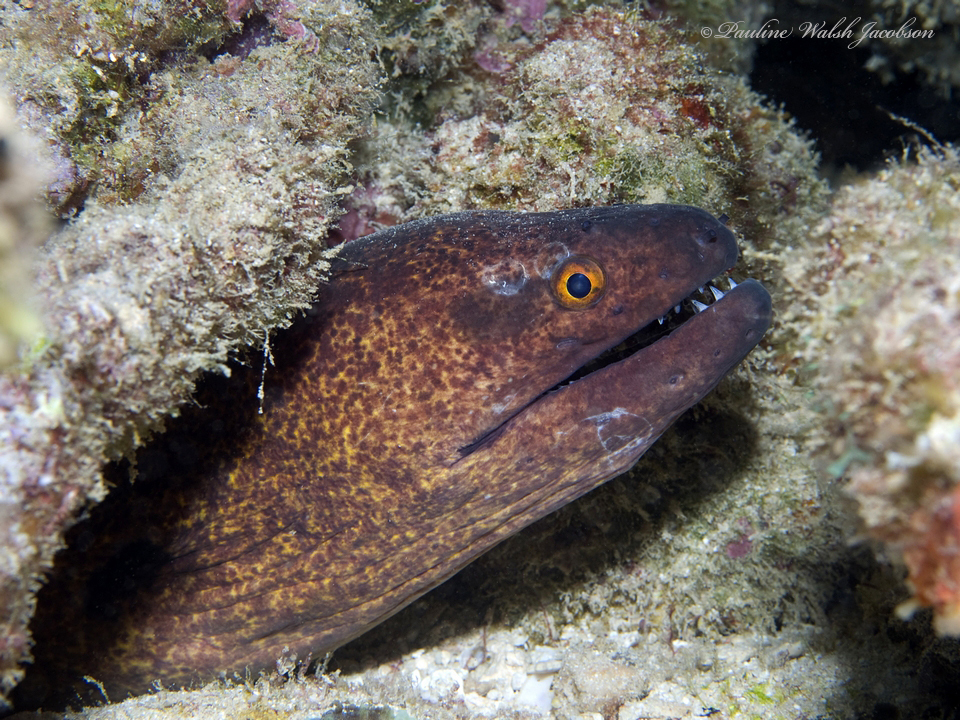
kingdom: Animalia
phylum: Chordata
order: Anguilliformes
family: Muraenidae
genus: Gymnothorax
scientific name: Gymnothorax flavimarginatus
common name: Yellow-edged moray
